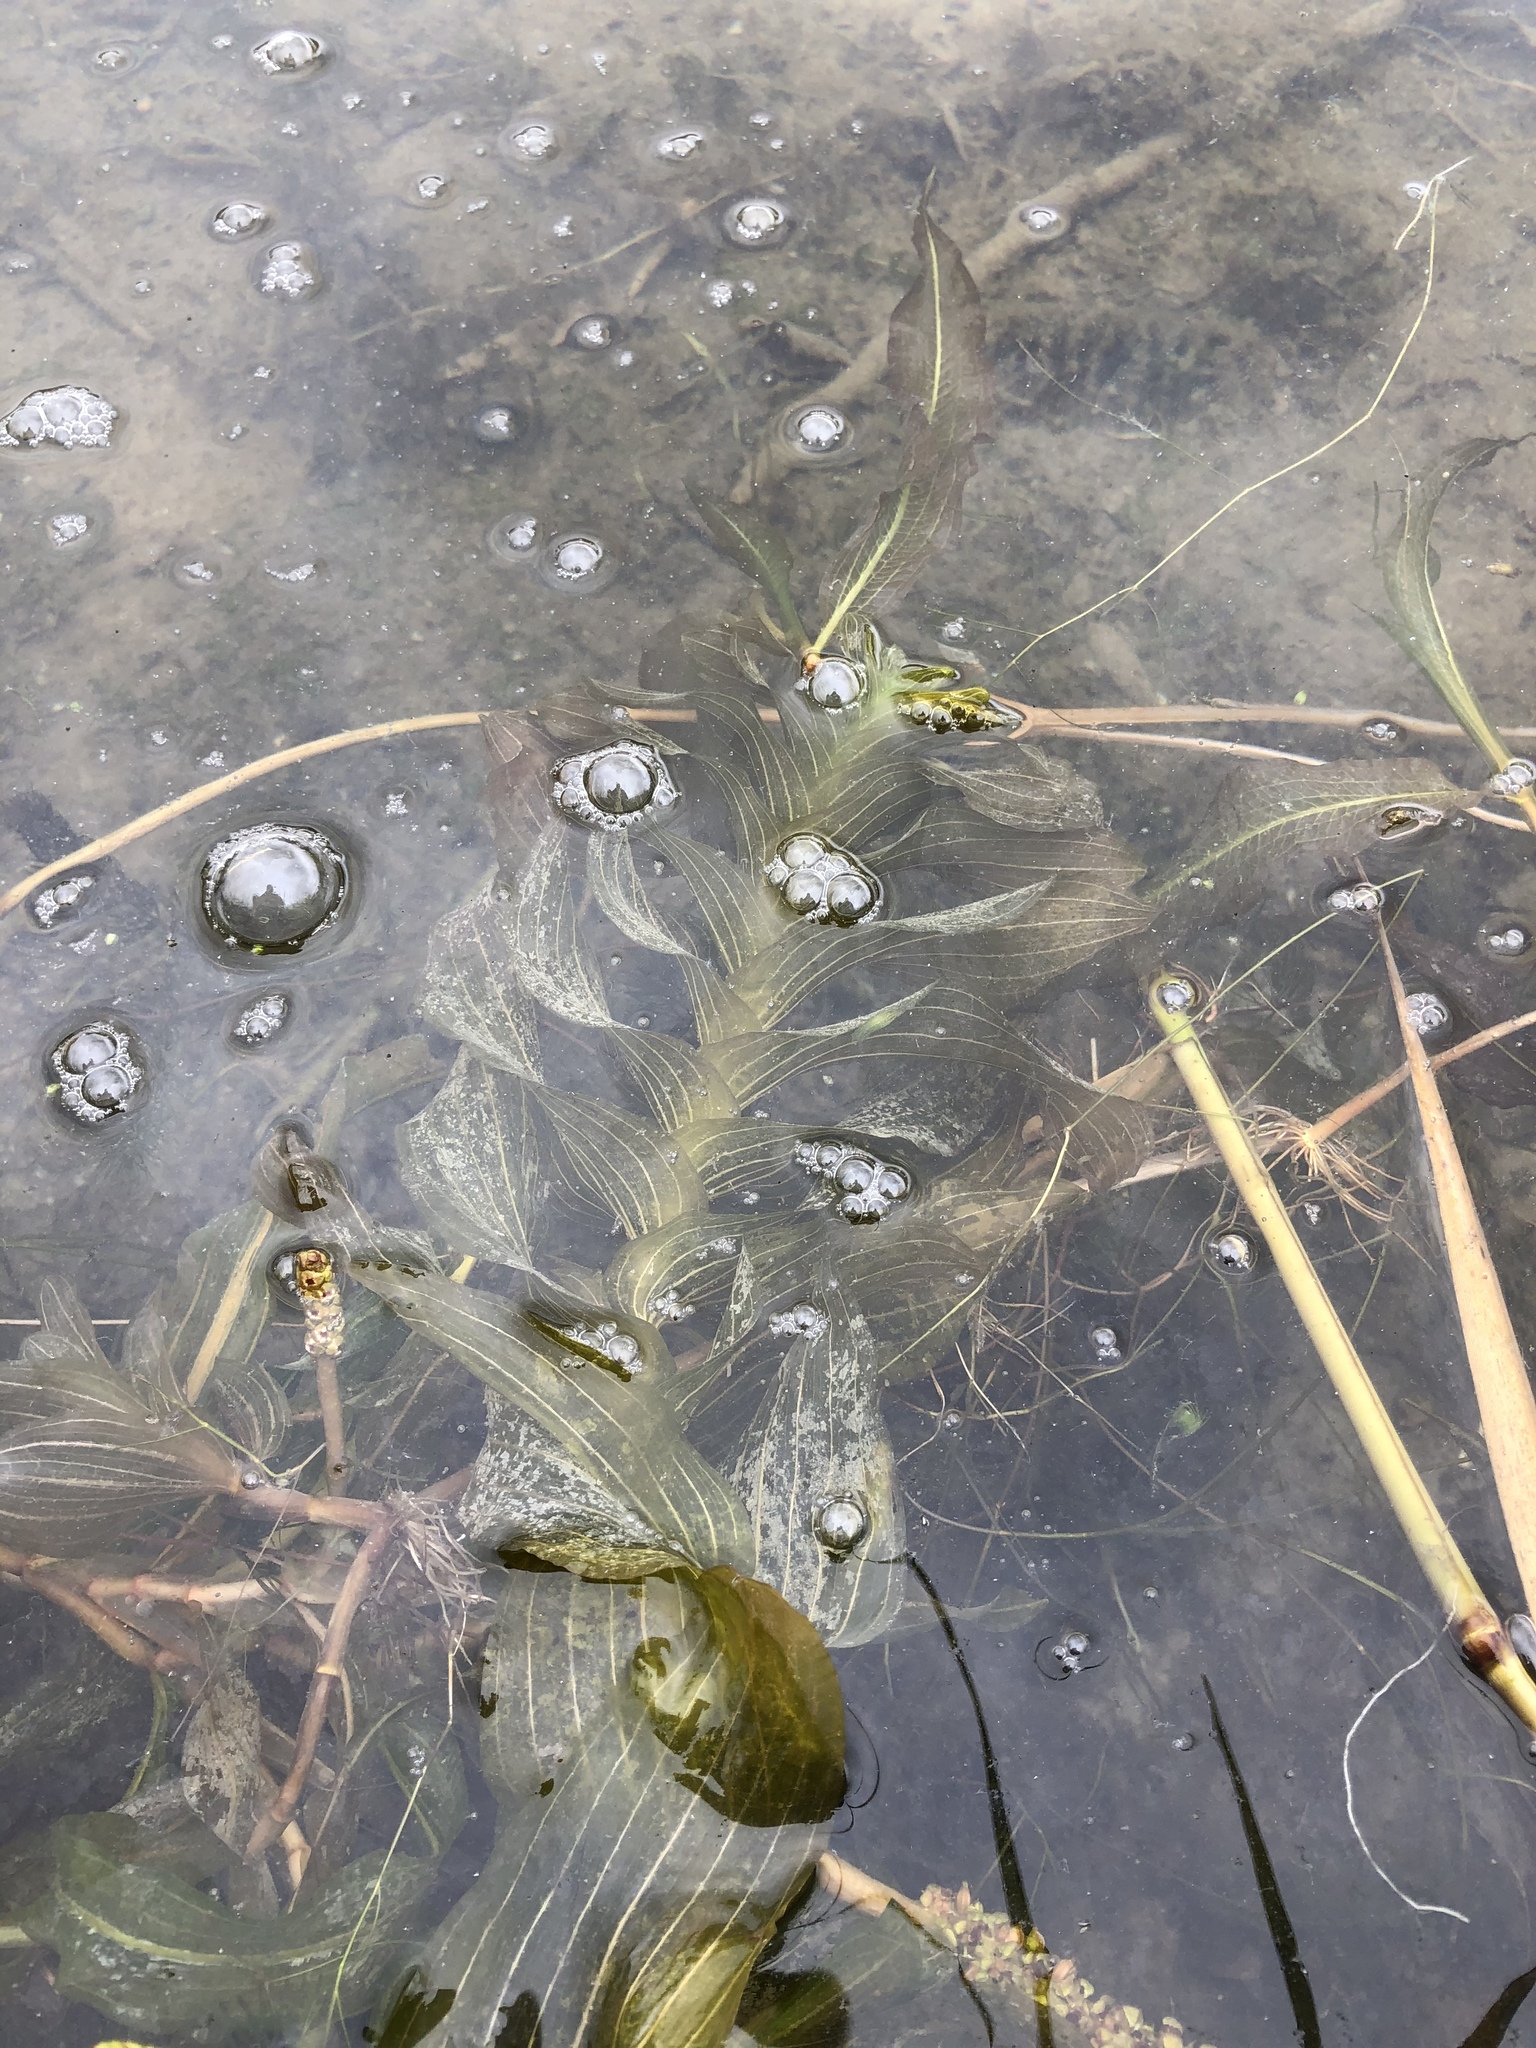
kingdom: Plantae
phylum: Tracheophyta
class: Liliopsida
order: Alismatales
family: Potamogetonaceae
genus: Potamogeton
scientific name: Potamogeton perfoliatus
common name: Perfoliate pondweed
